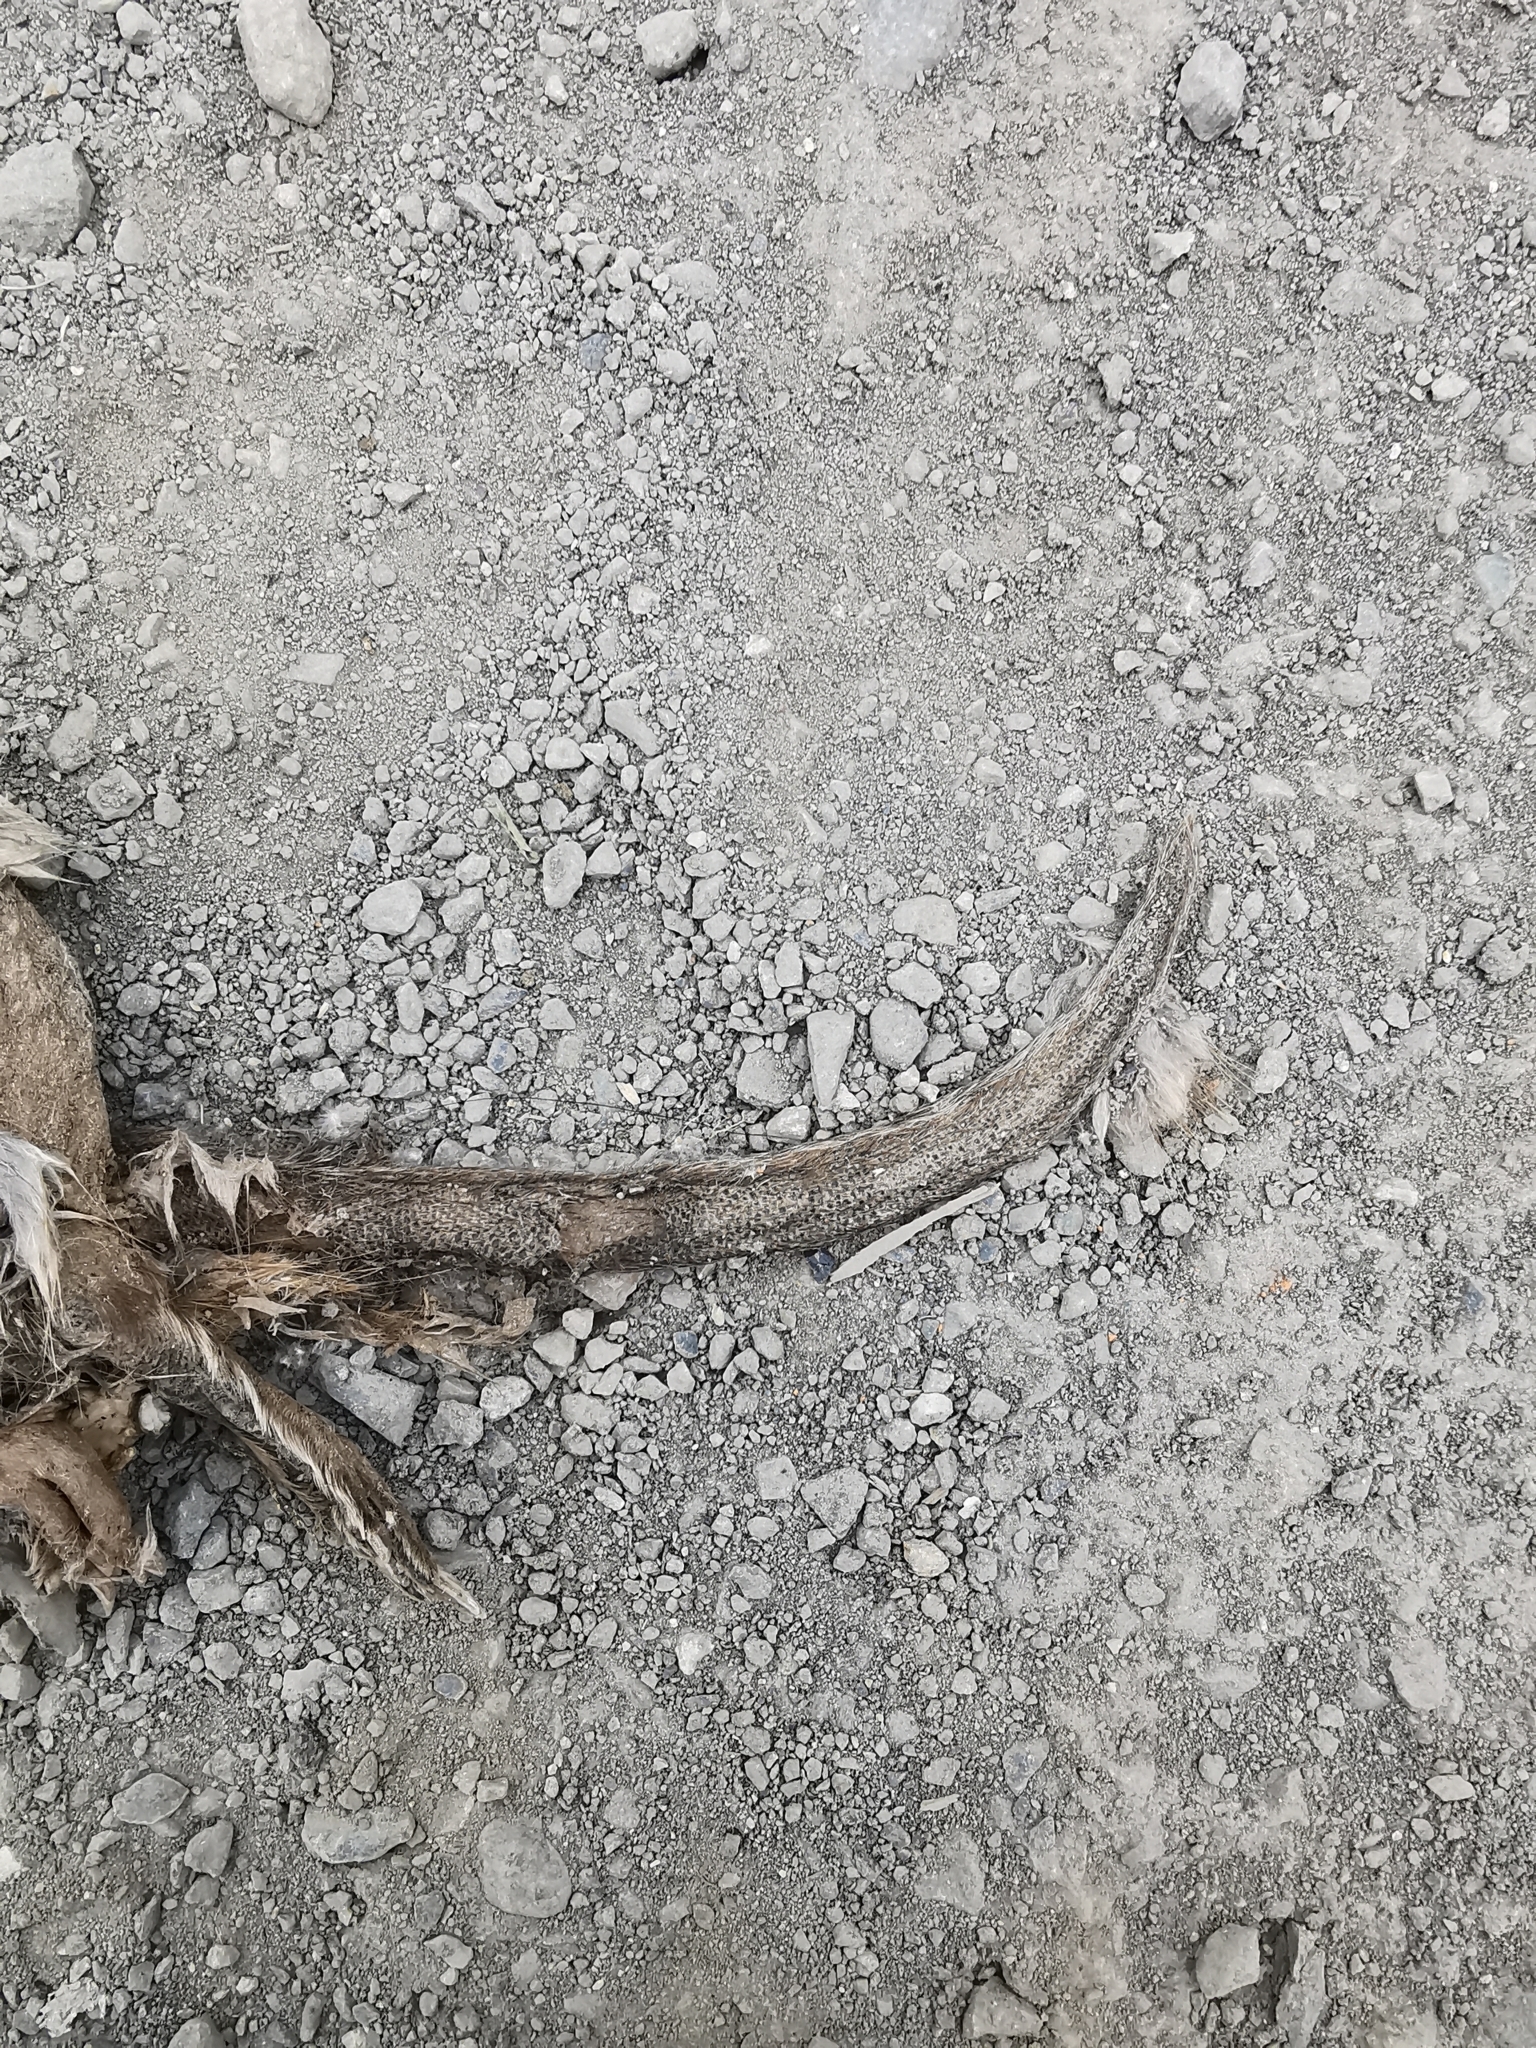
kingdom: Animalia
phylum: Chordata
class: Mammalia
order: Rodentia
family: Cricetidae
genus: Ondatra
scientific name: Ondatra zibethicus
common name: Muskrat
